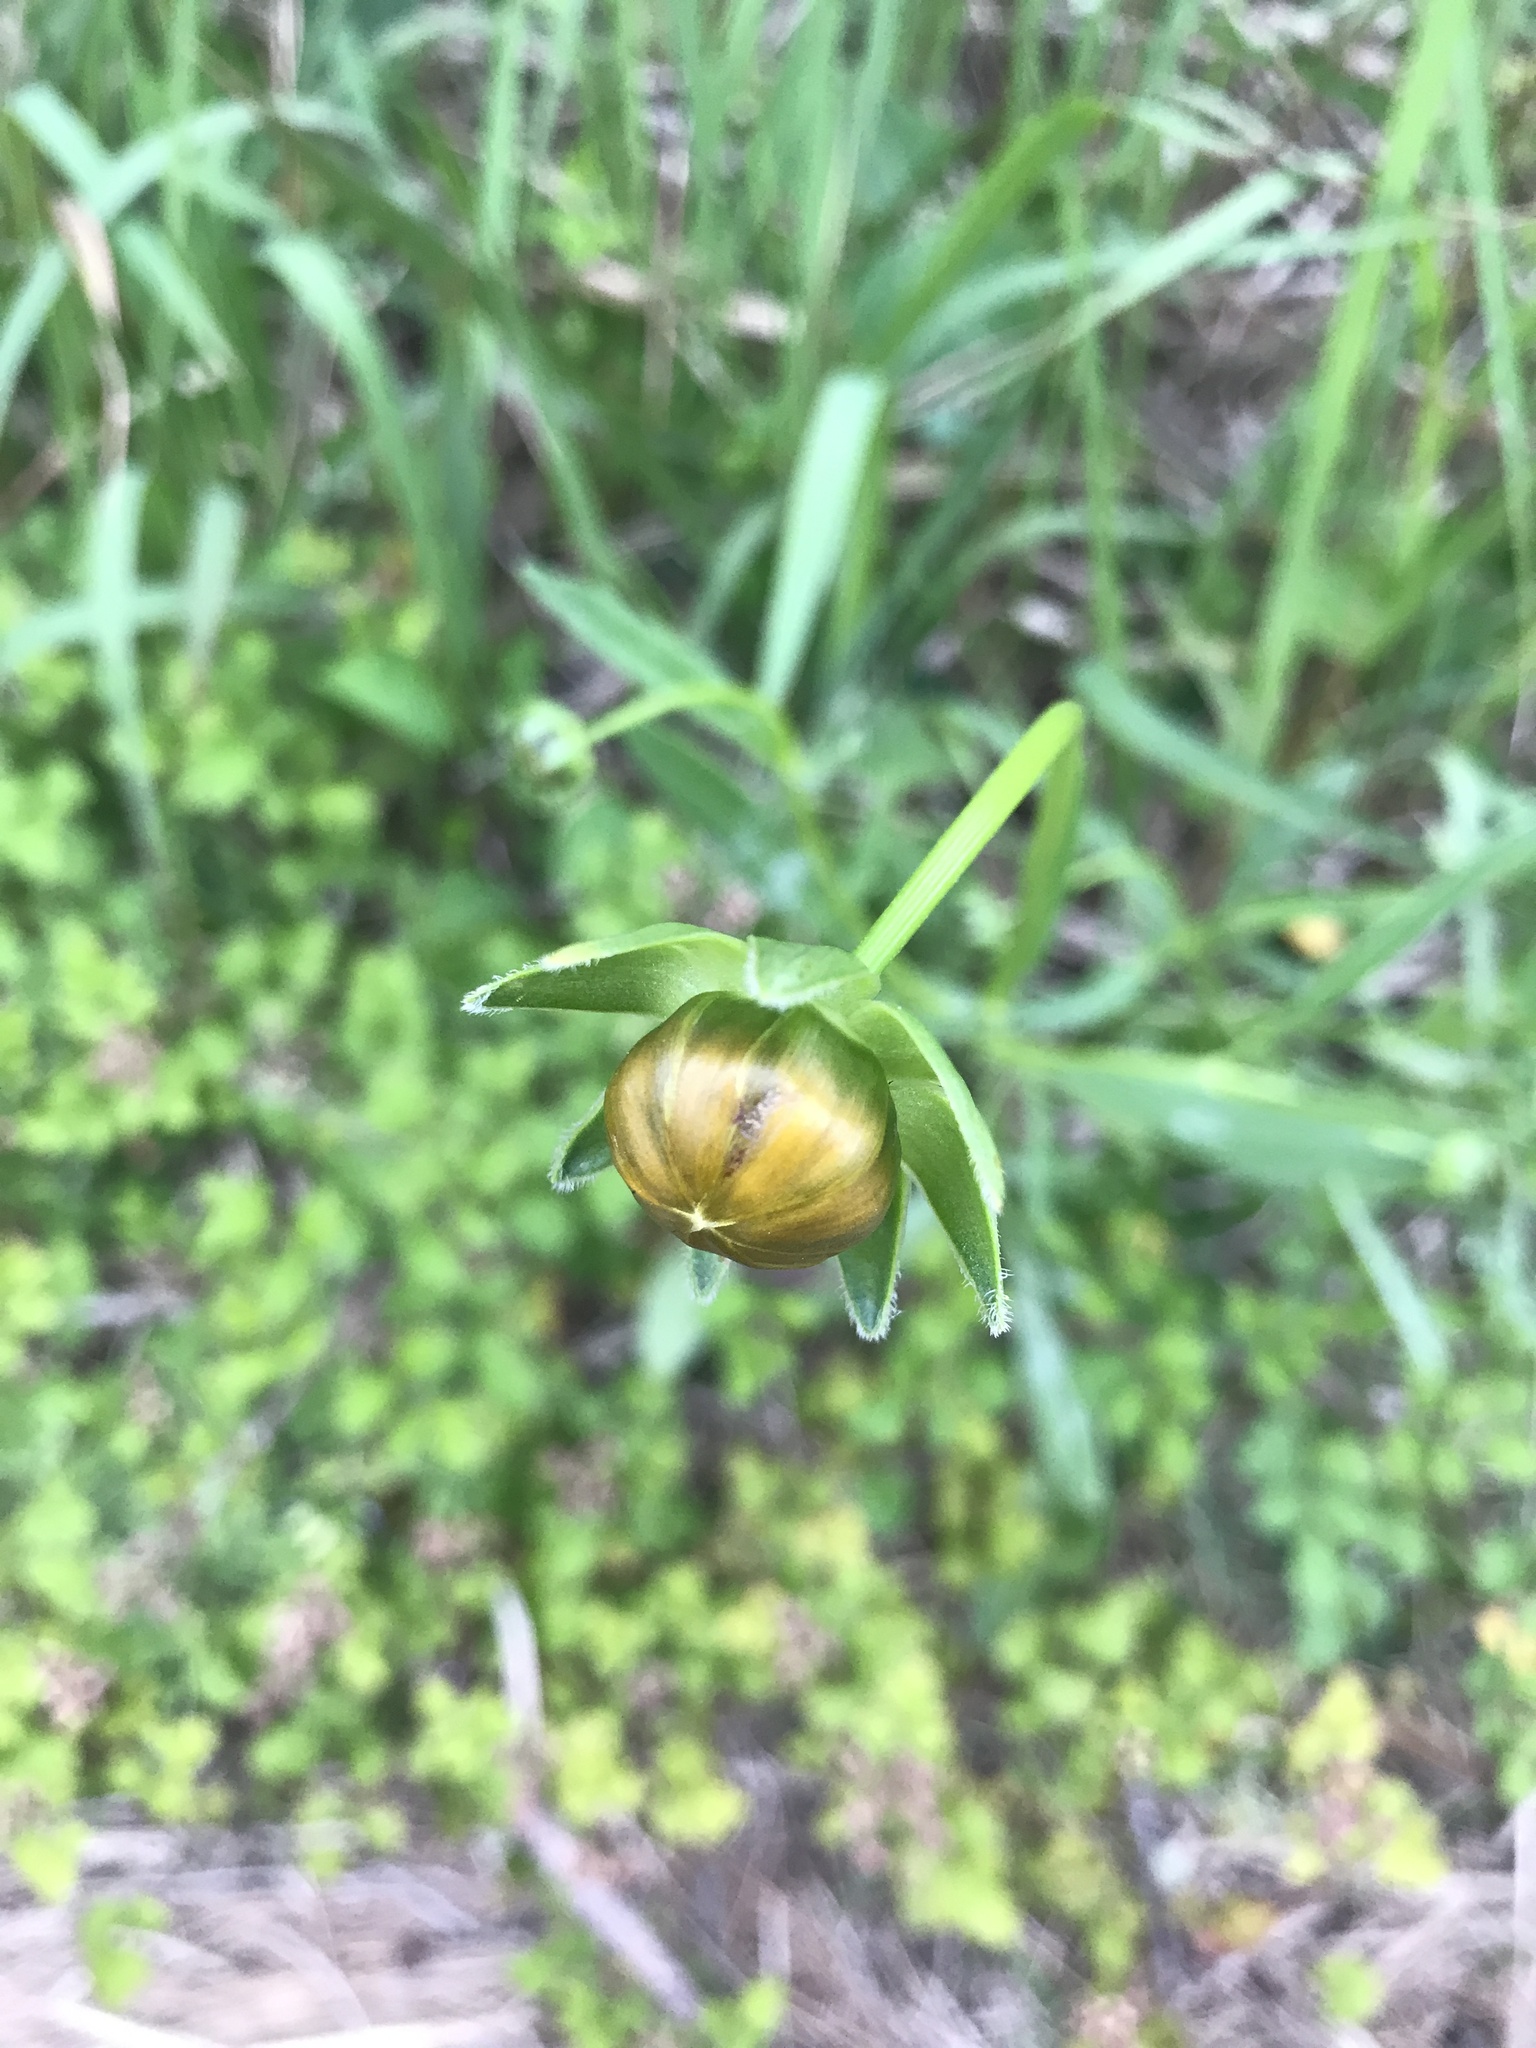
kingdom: Plantae
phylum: Tracheophyta
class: Magnoliopsida
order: Asterales
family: Asteraceae
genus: Coreopsis
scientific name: Coreopsis lanceolata
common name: Garden coreopsis
